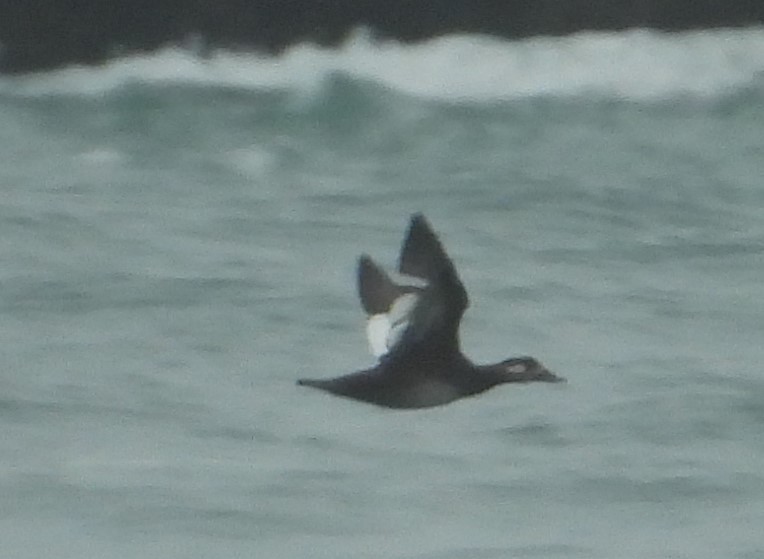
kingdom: Animalia
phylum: Chordata
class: Aves
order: Anseriformes
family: Anatidae
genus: Melanitta
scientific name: Melanitta deglandi
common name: White-winged scoter
